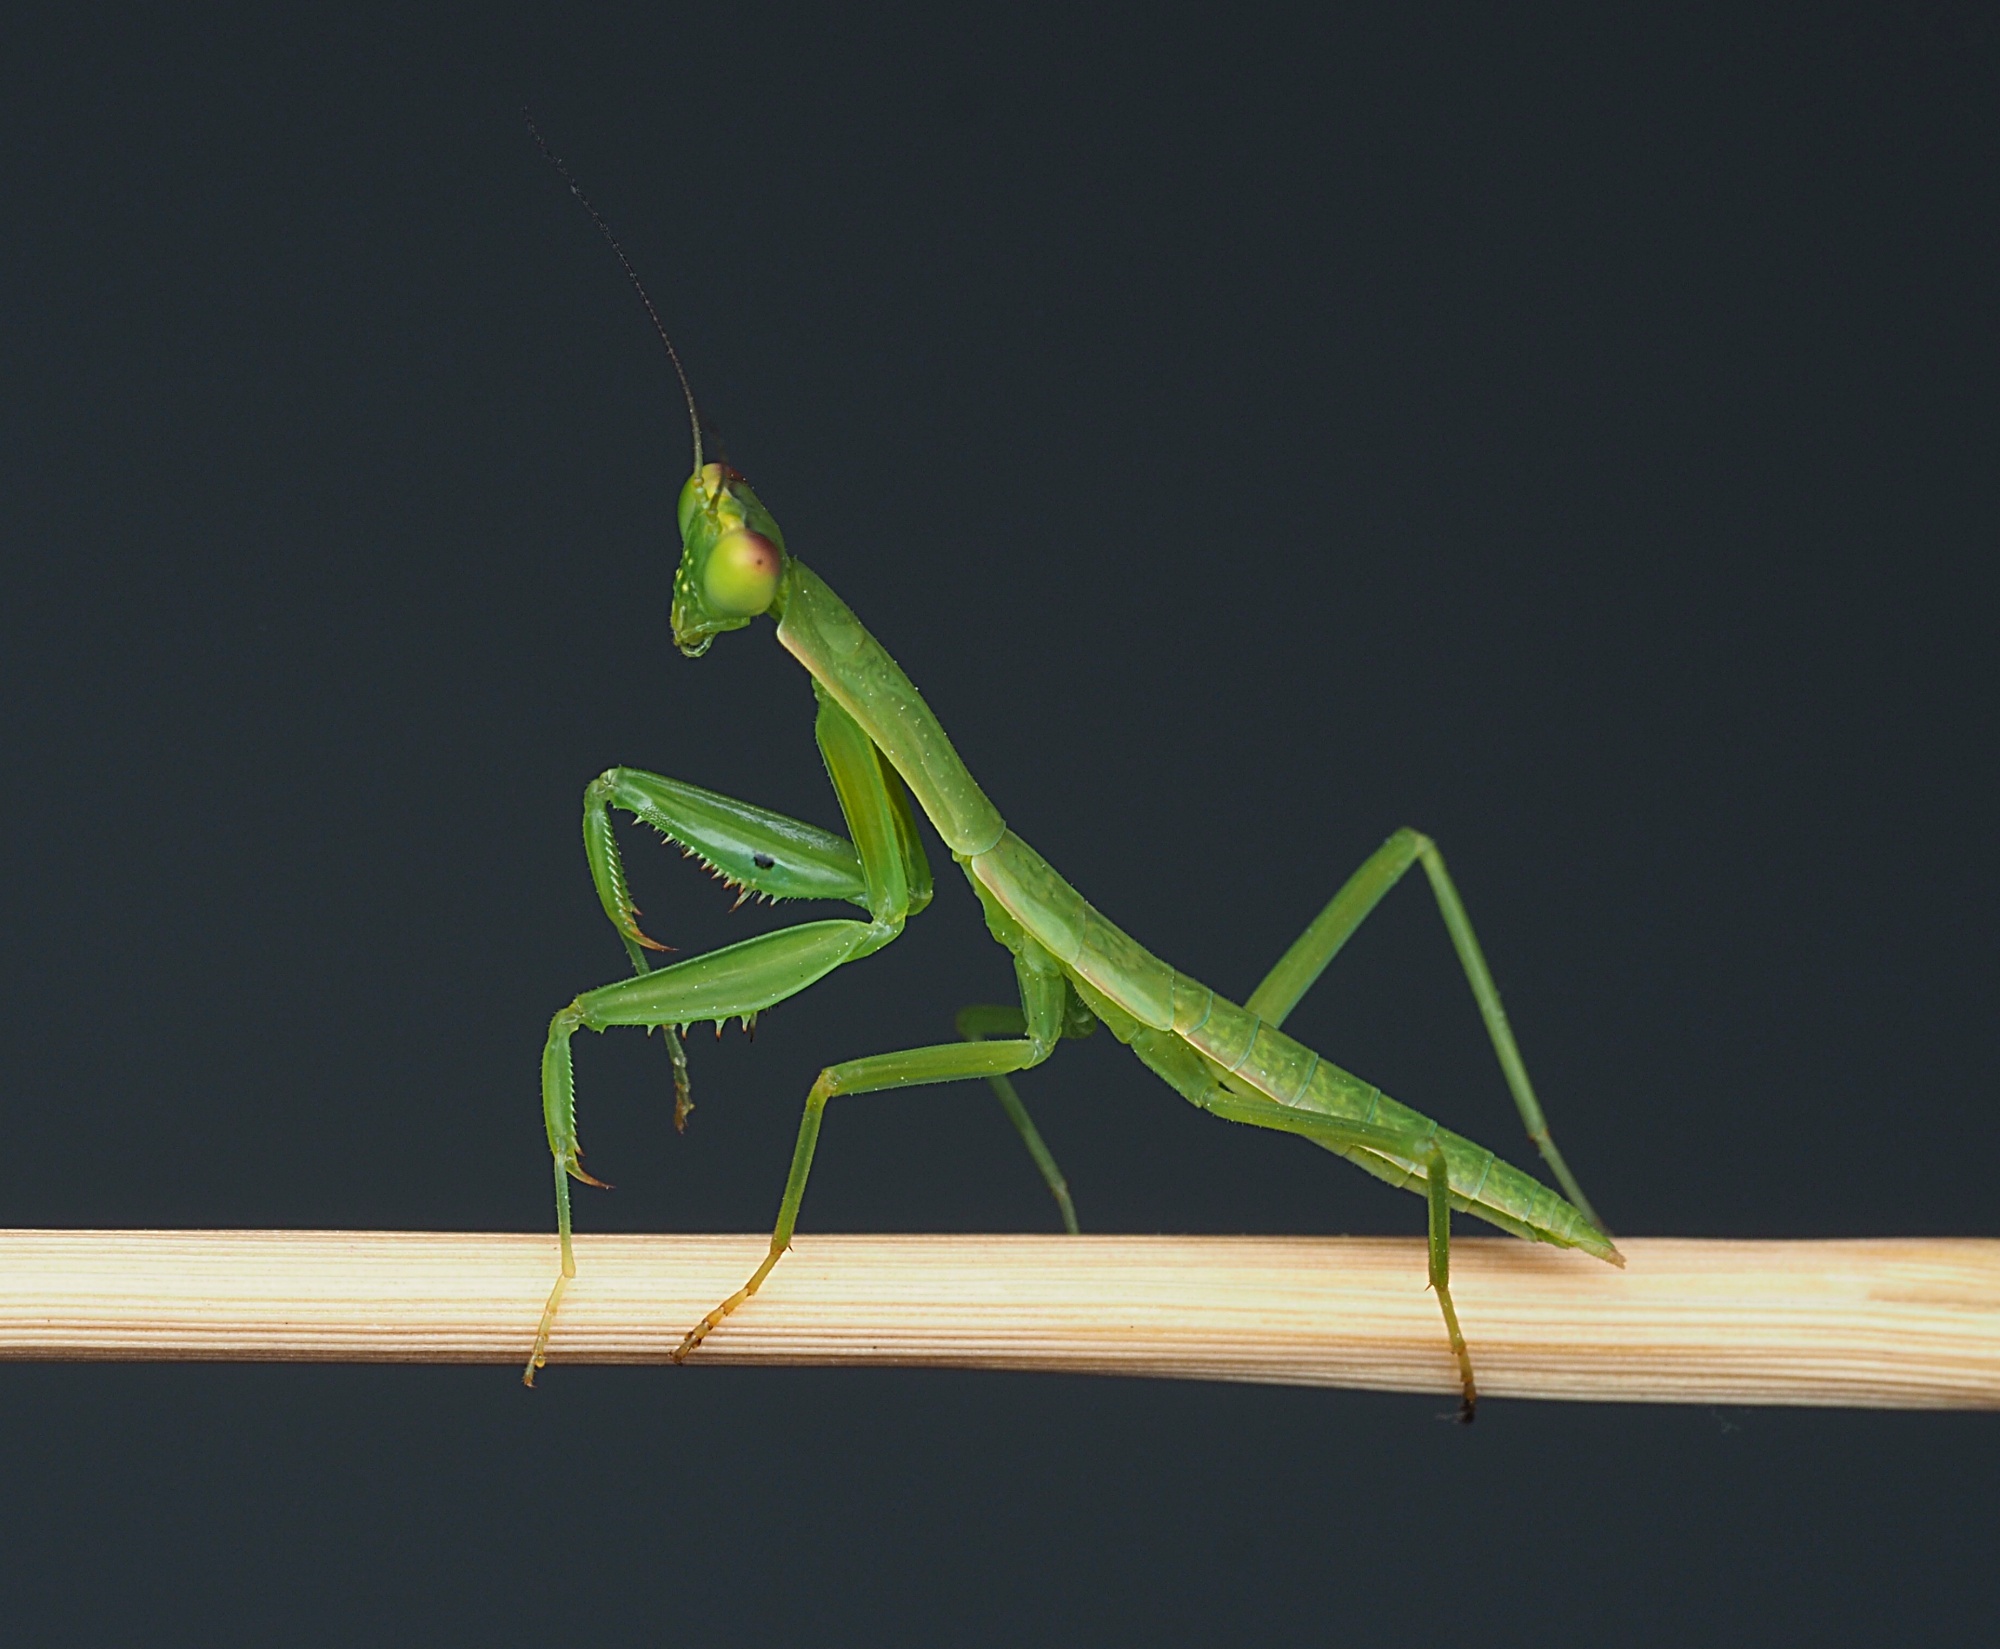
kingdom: Animalia
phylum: Arthropoda
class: Insecta
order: Mantodea
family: Mantidae
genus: Orthodera
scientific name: Orthodera novaezealandiae
